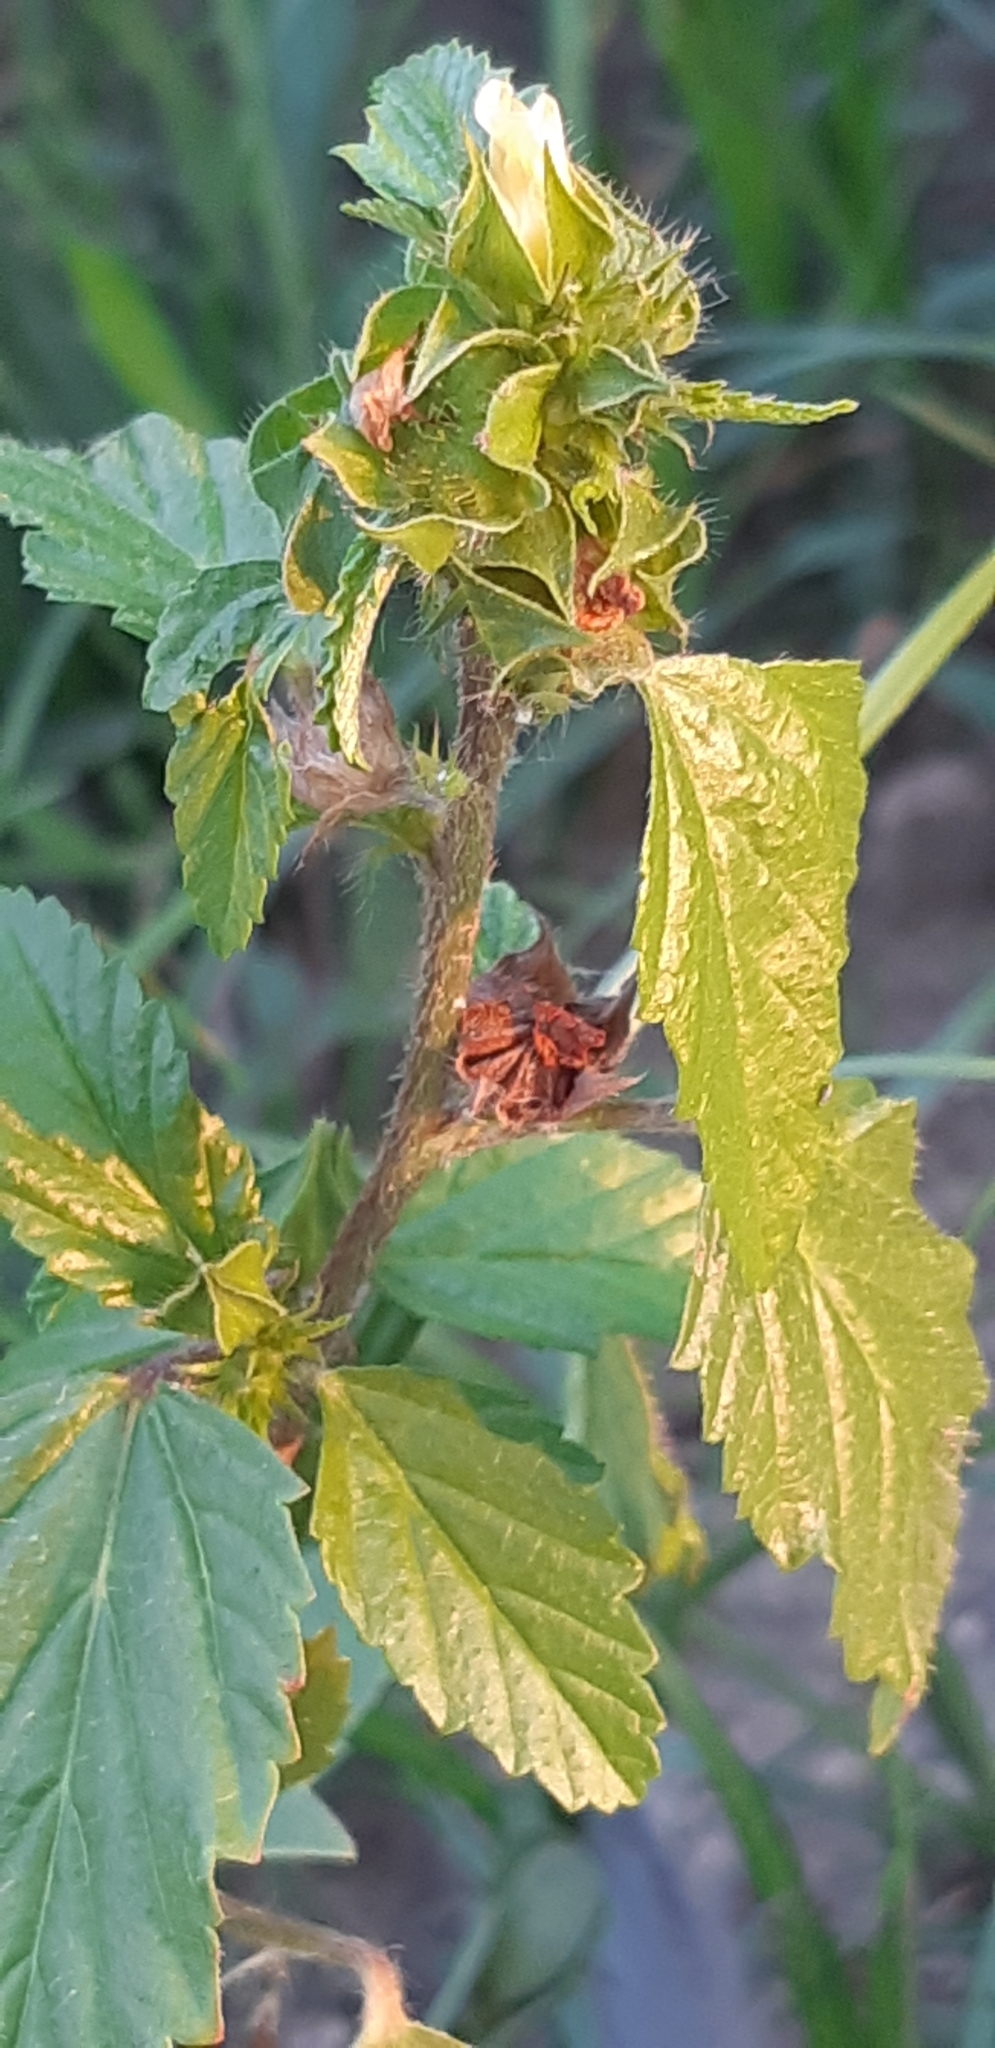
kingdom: Plantae
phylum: Tracheophyta
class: Magnoliopsida
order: Malvales
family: Malvaceae
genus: Malvastrum
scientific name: Malvastrum coromandelianum
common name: Threelobe false mallow
